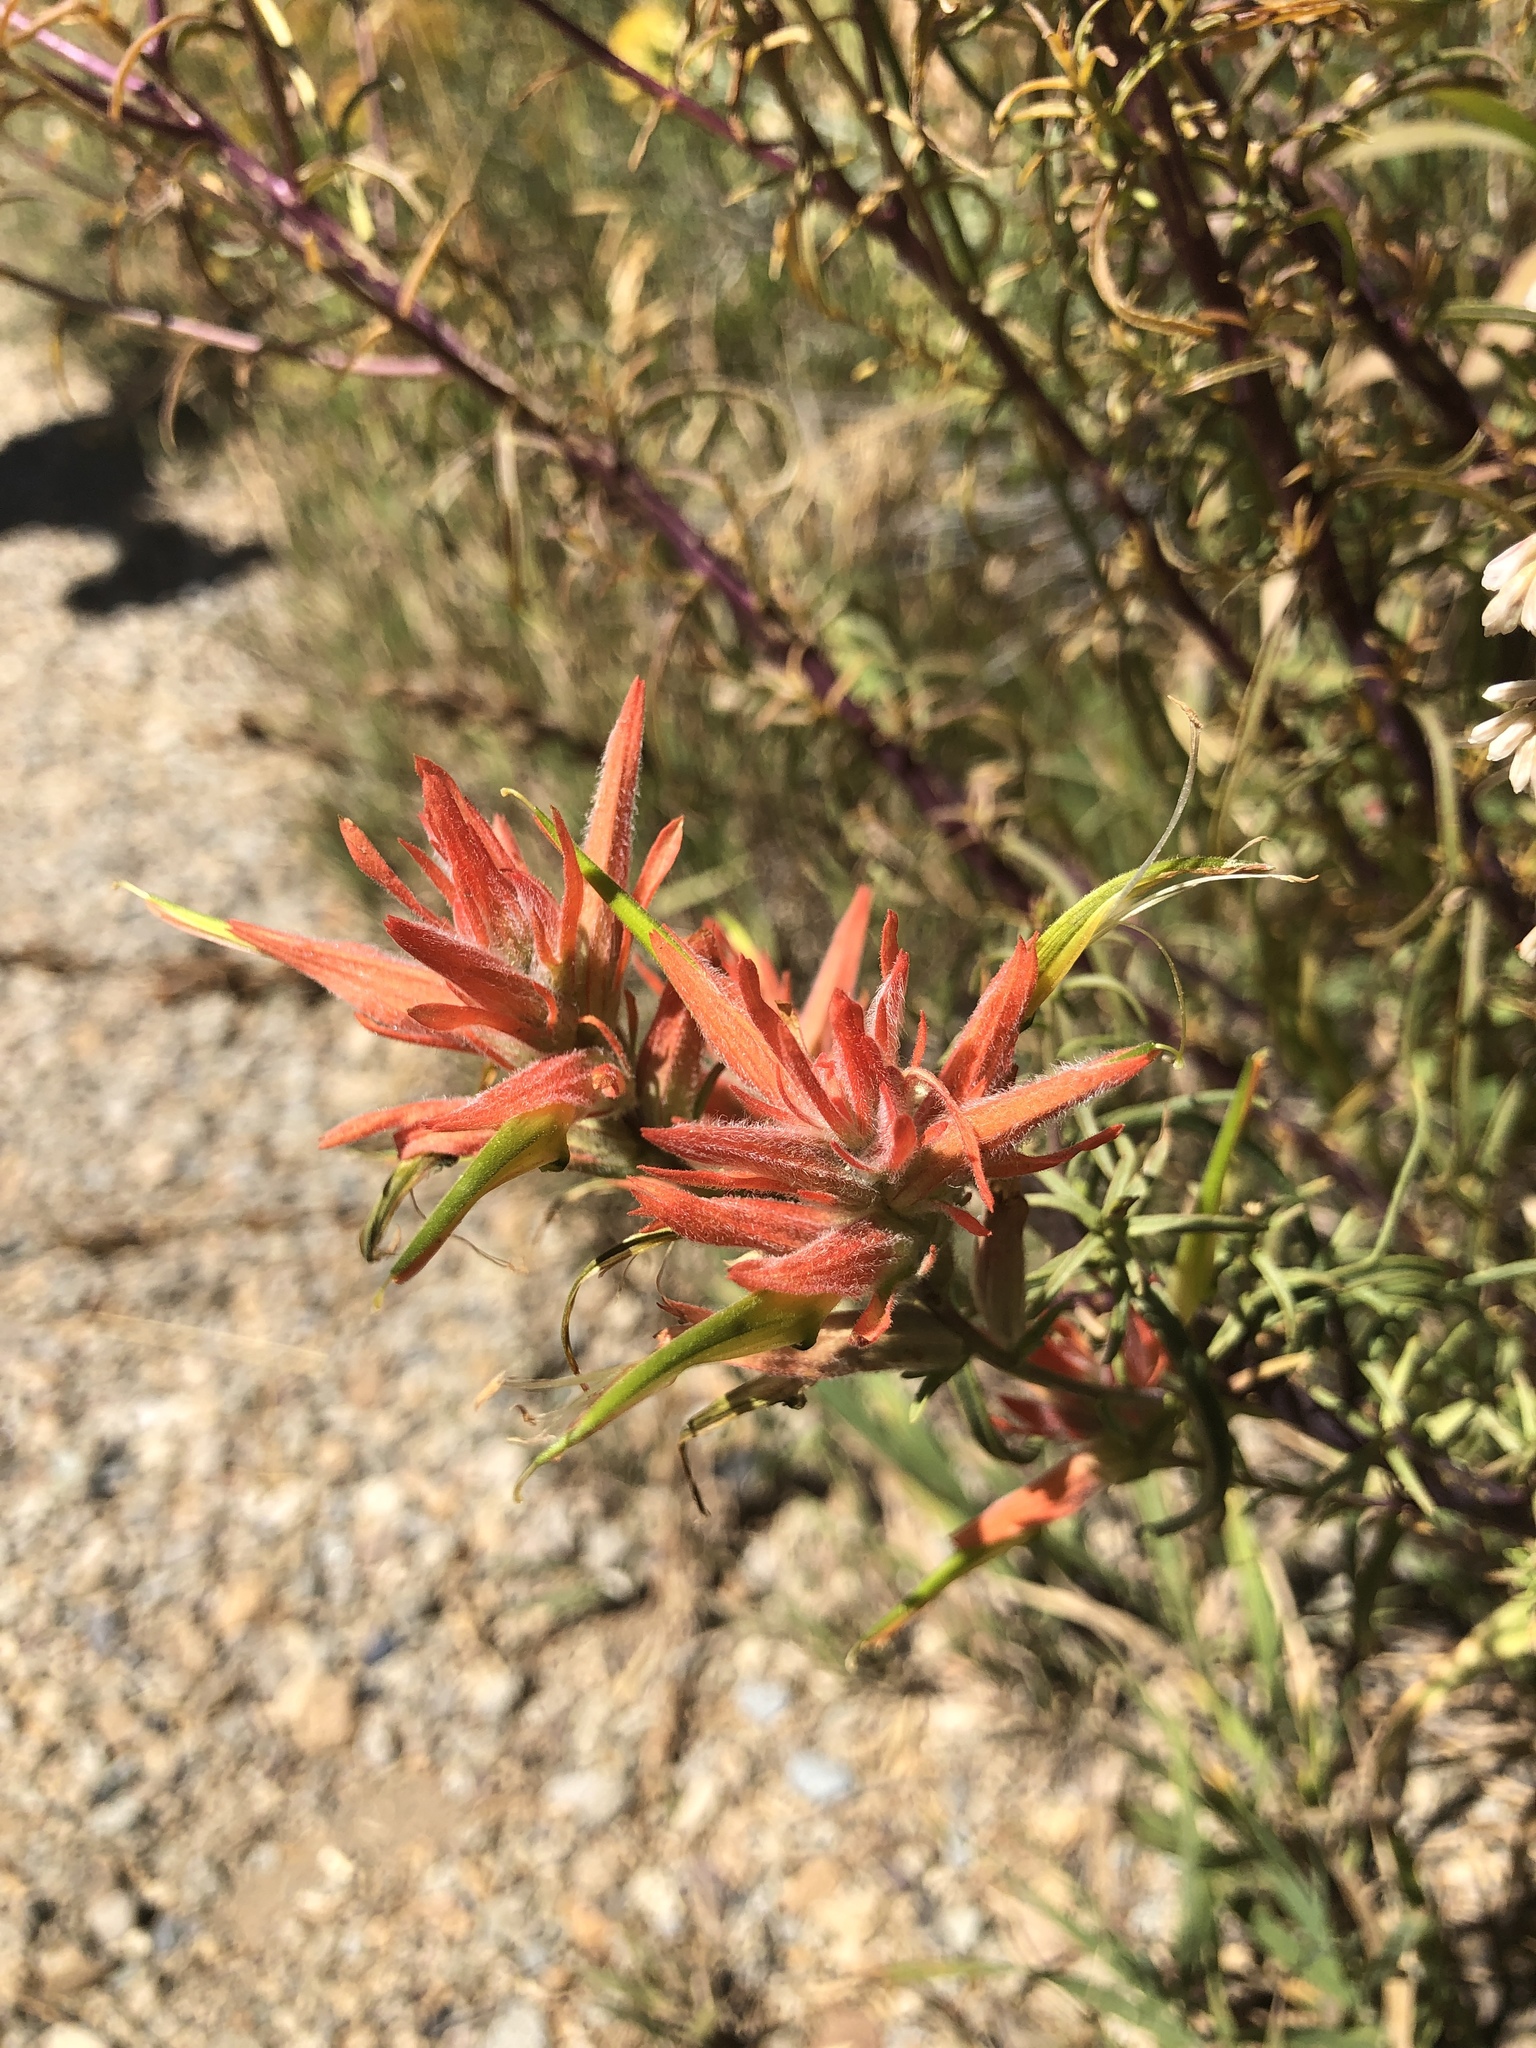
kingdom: Plantae
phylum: Tracheophyta
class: Magnoliopsida
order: Lamiales
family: Orobanchaceae
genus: Castilleja
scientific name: Castilleja linariifolia
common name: Wyoming paintbrush
